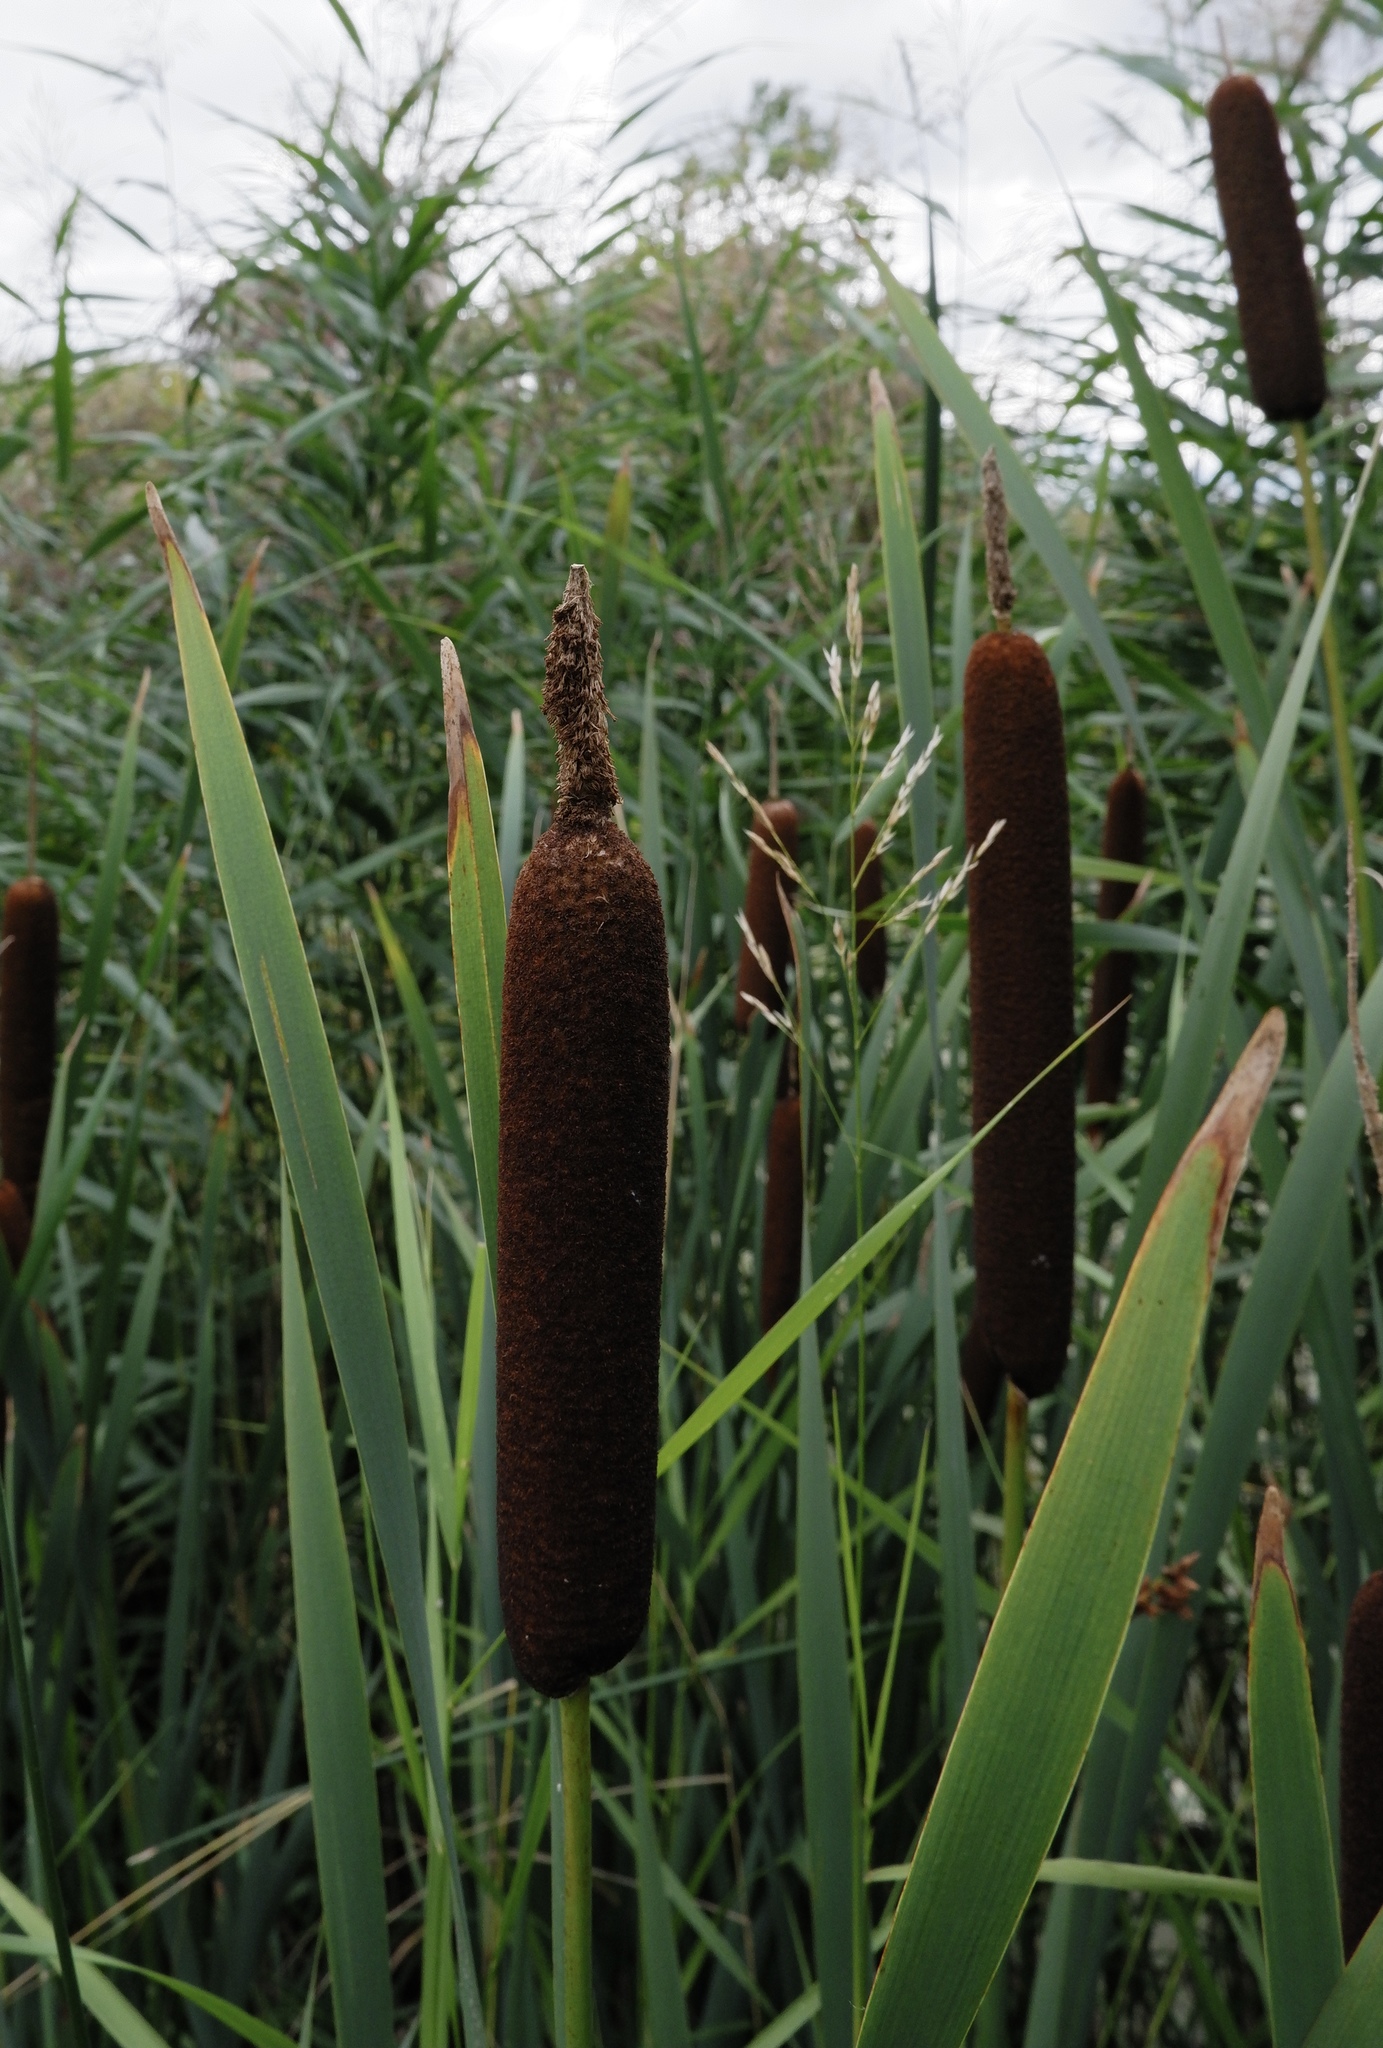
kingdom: Plantae
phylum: Tracheophyta
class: Liliopsida
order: Poales
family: Typhaceae
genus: Typha
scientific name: Typha latifolia
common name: Broadleaf cattail
